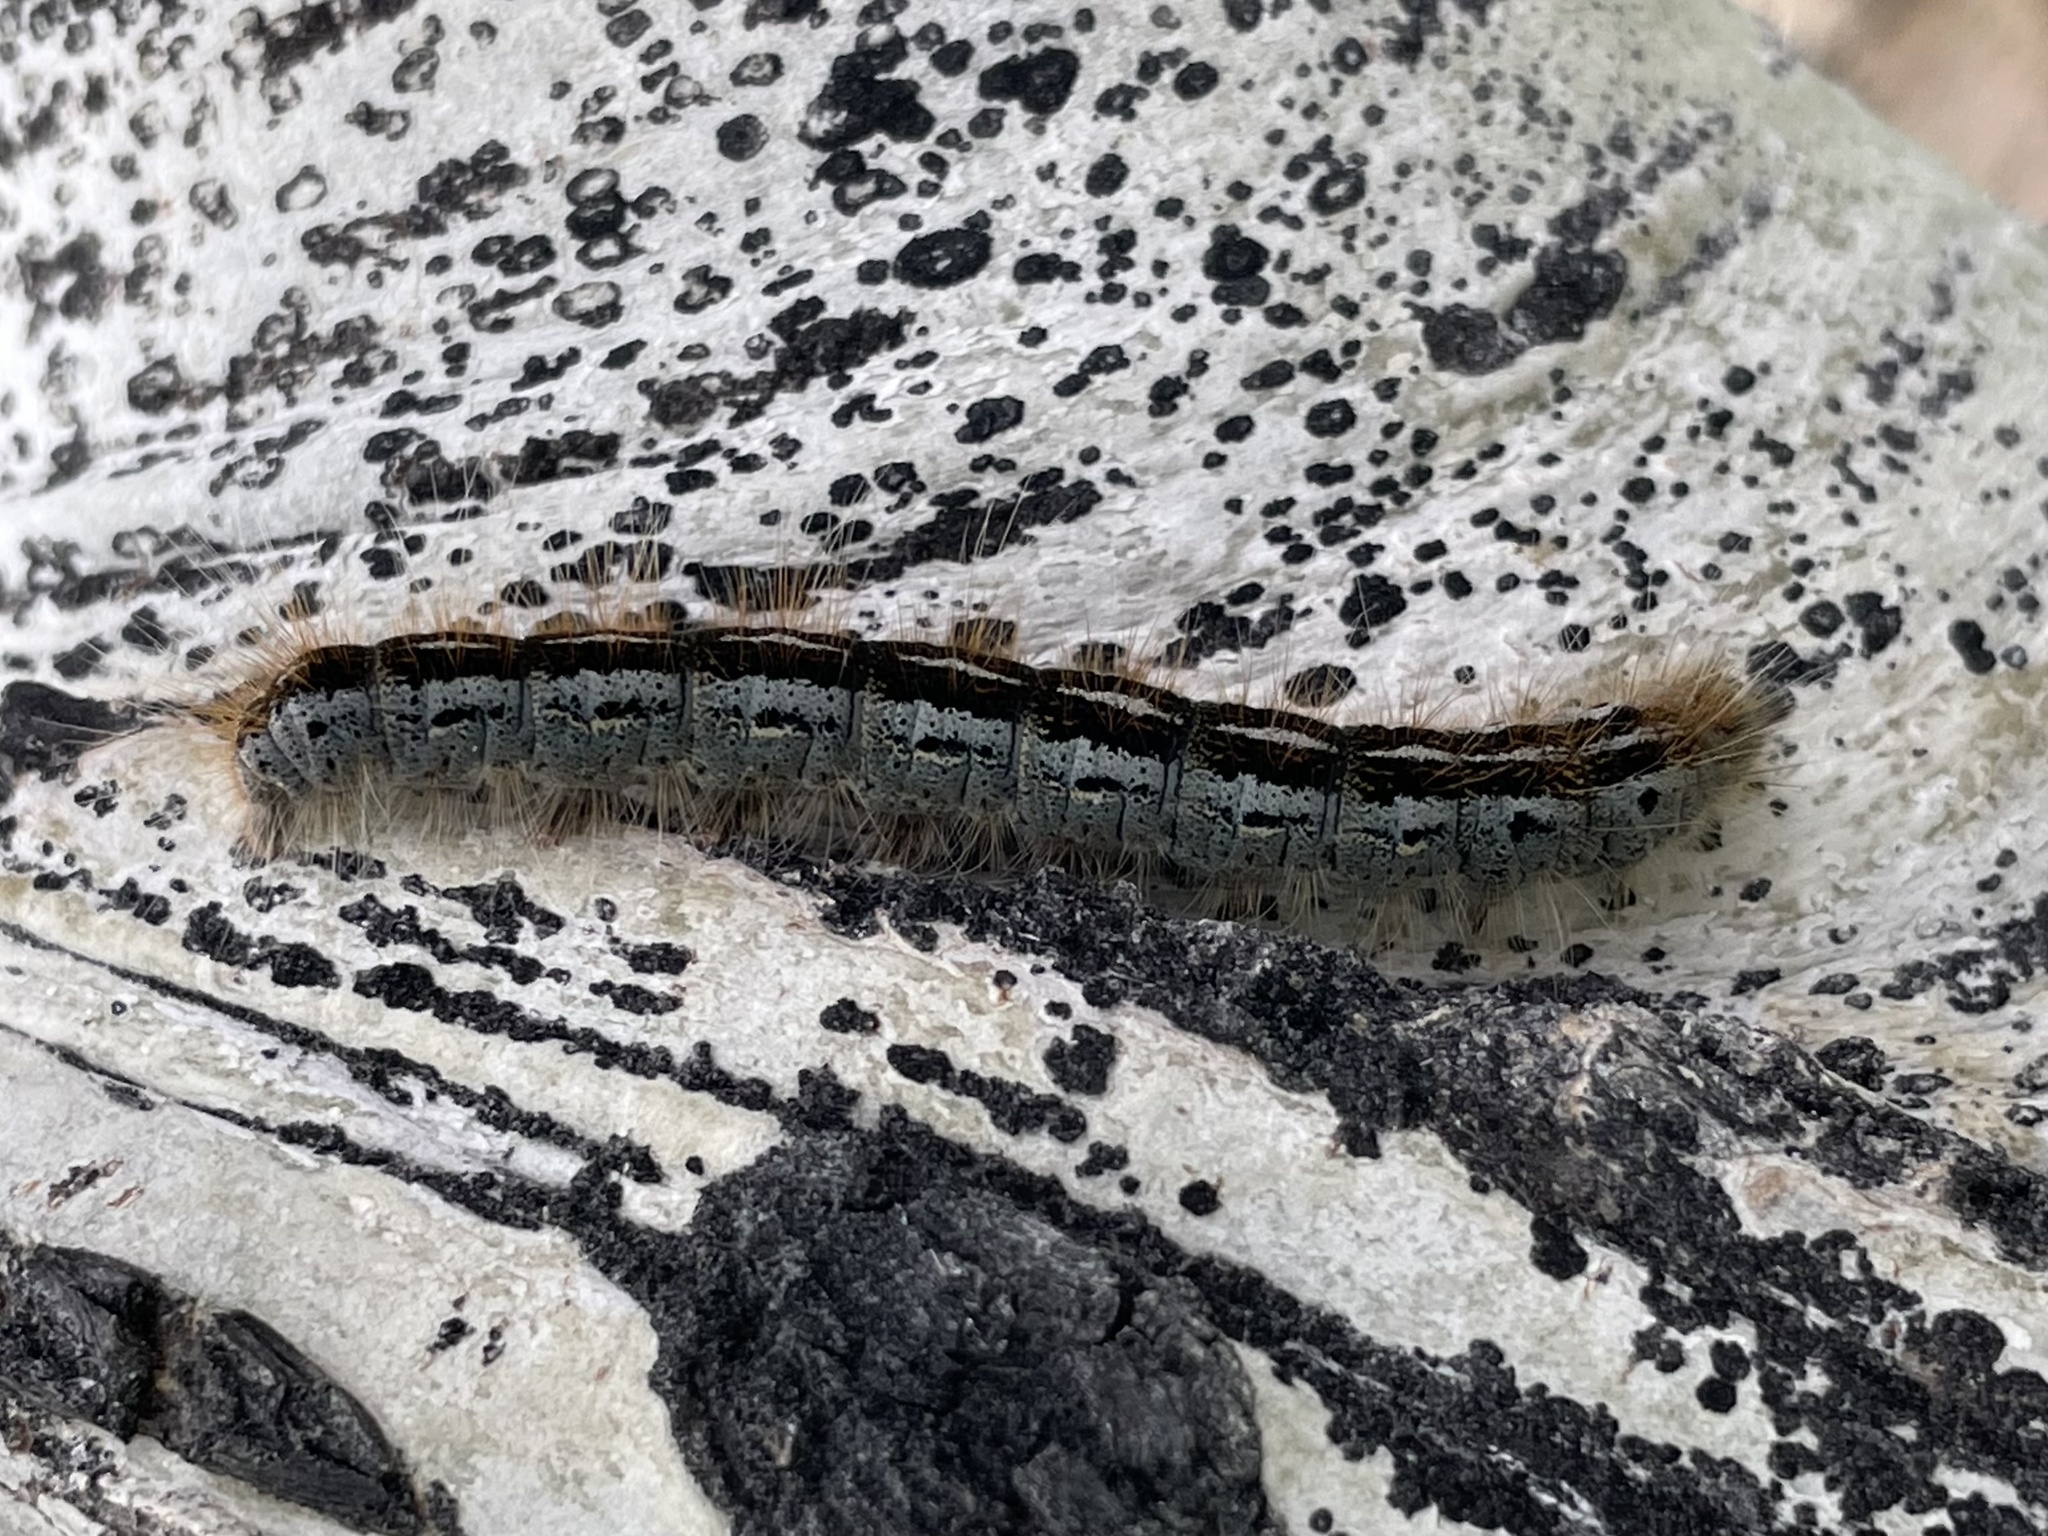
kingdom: Animalia
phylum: Arthropoda
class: Insecta
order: Lepidoptera
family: Lasiocampidae
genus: Malacosoma
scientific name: Malacosoma californica
